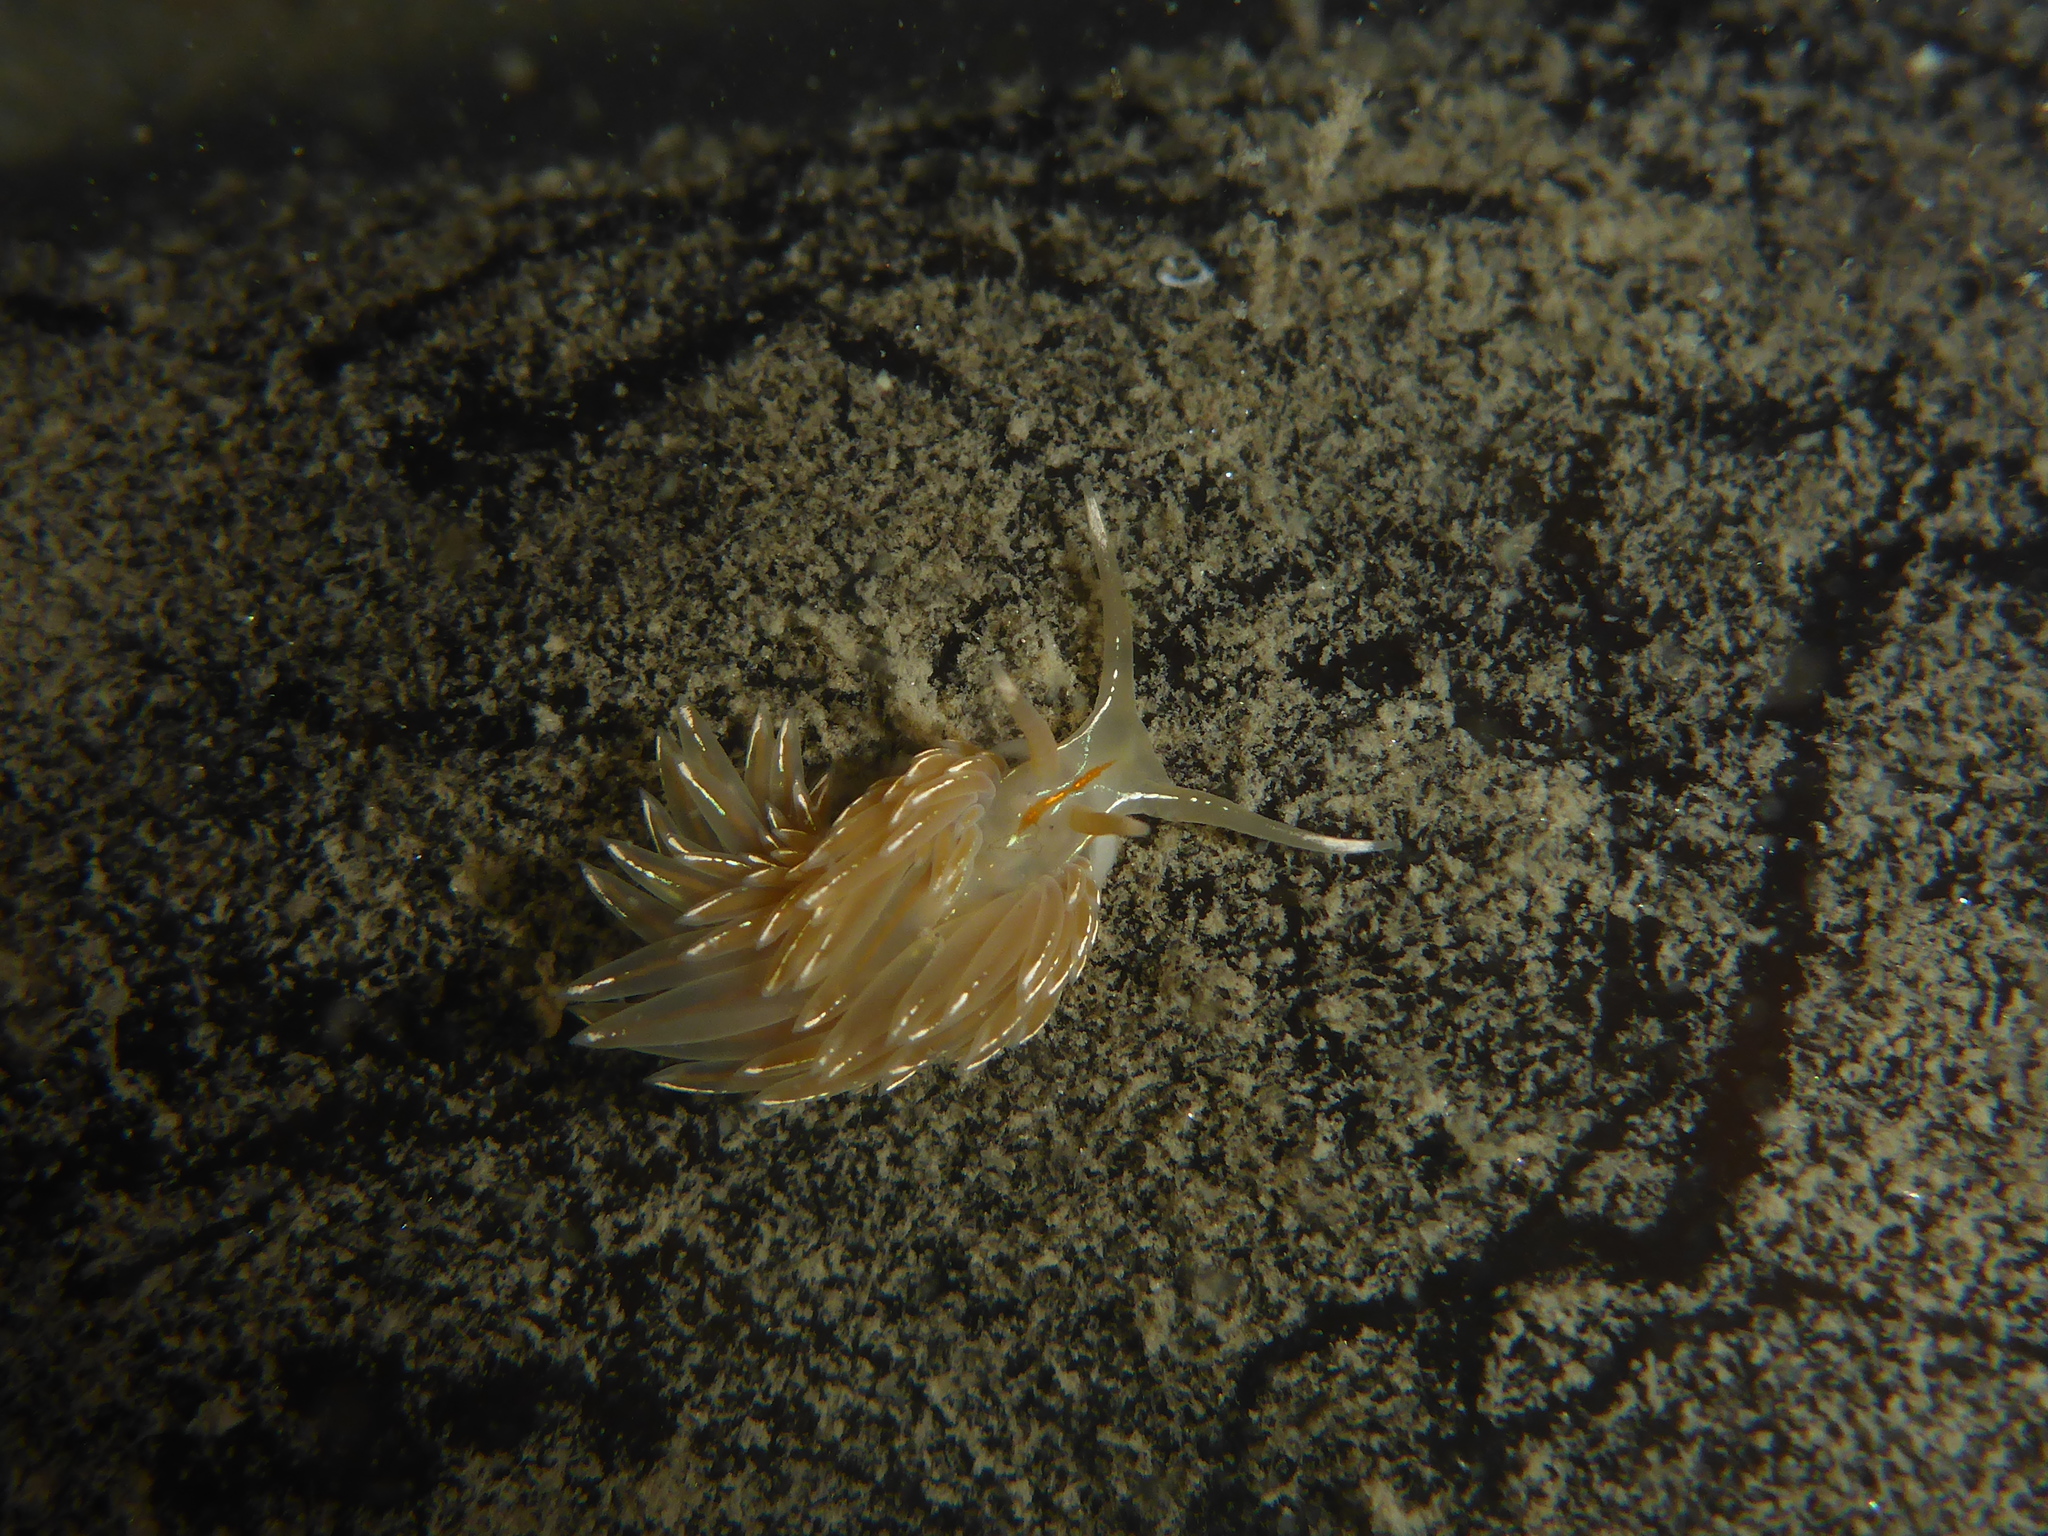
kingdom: Animalia
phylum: Mollusca
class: Gastropoda
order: Nudibranchia
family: Myrrhinidae
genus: Hermissenda
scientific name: Hermissenda crassicornis
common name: Hermissenda
